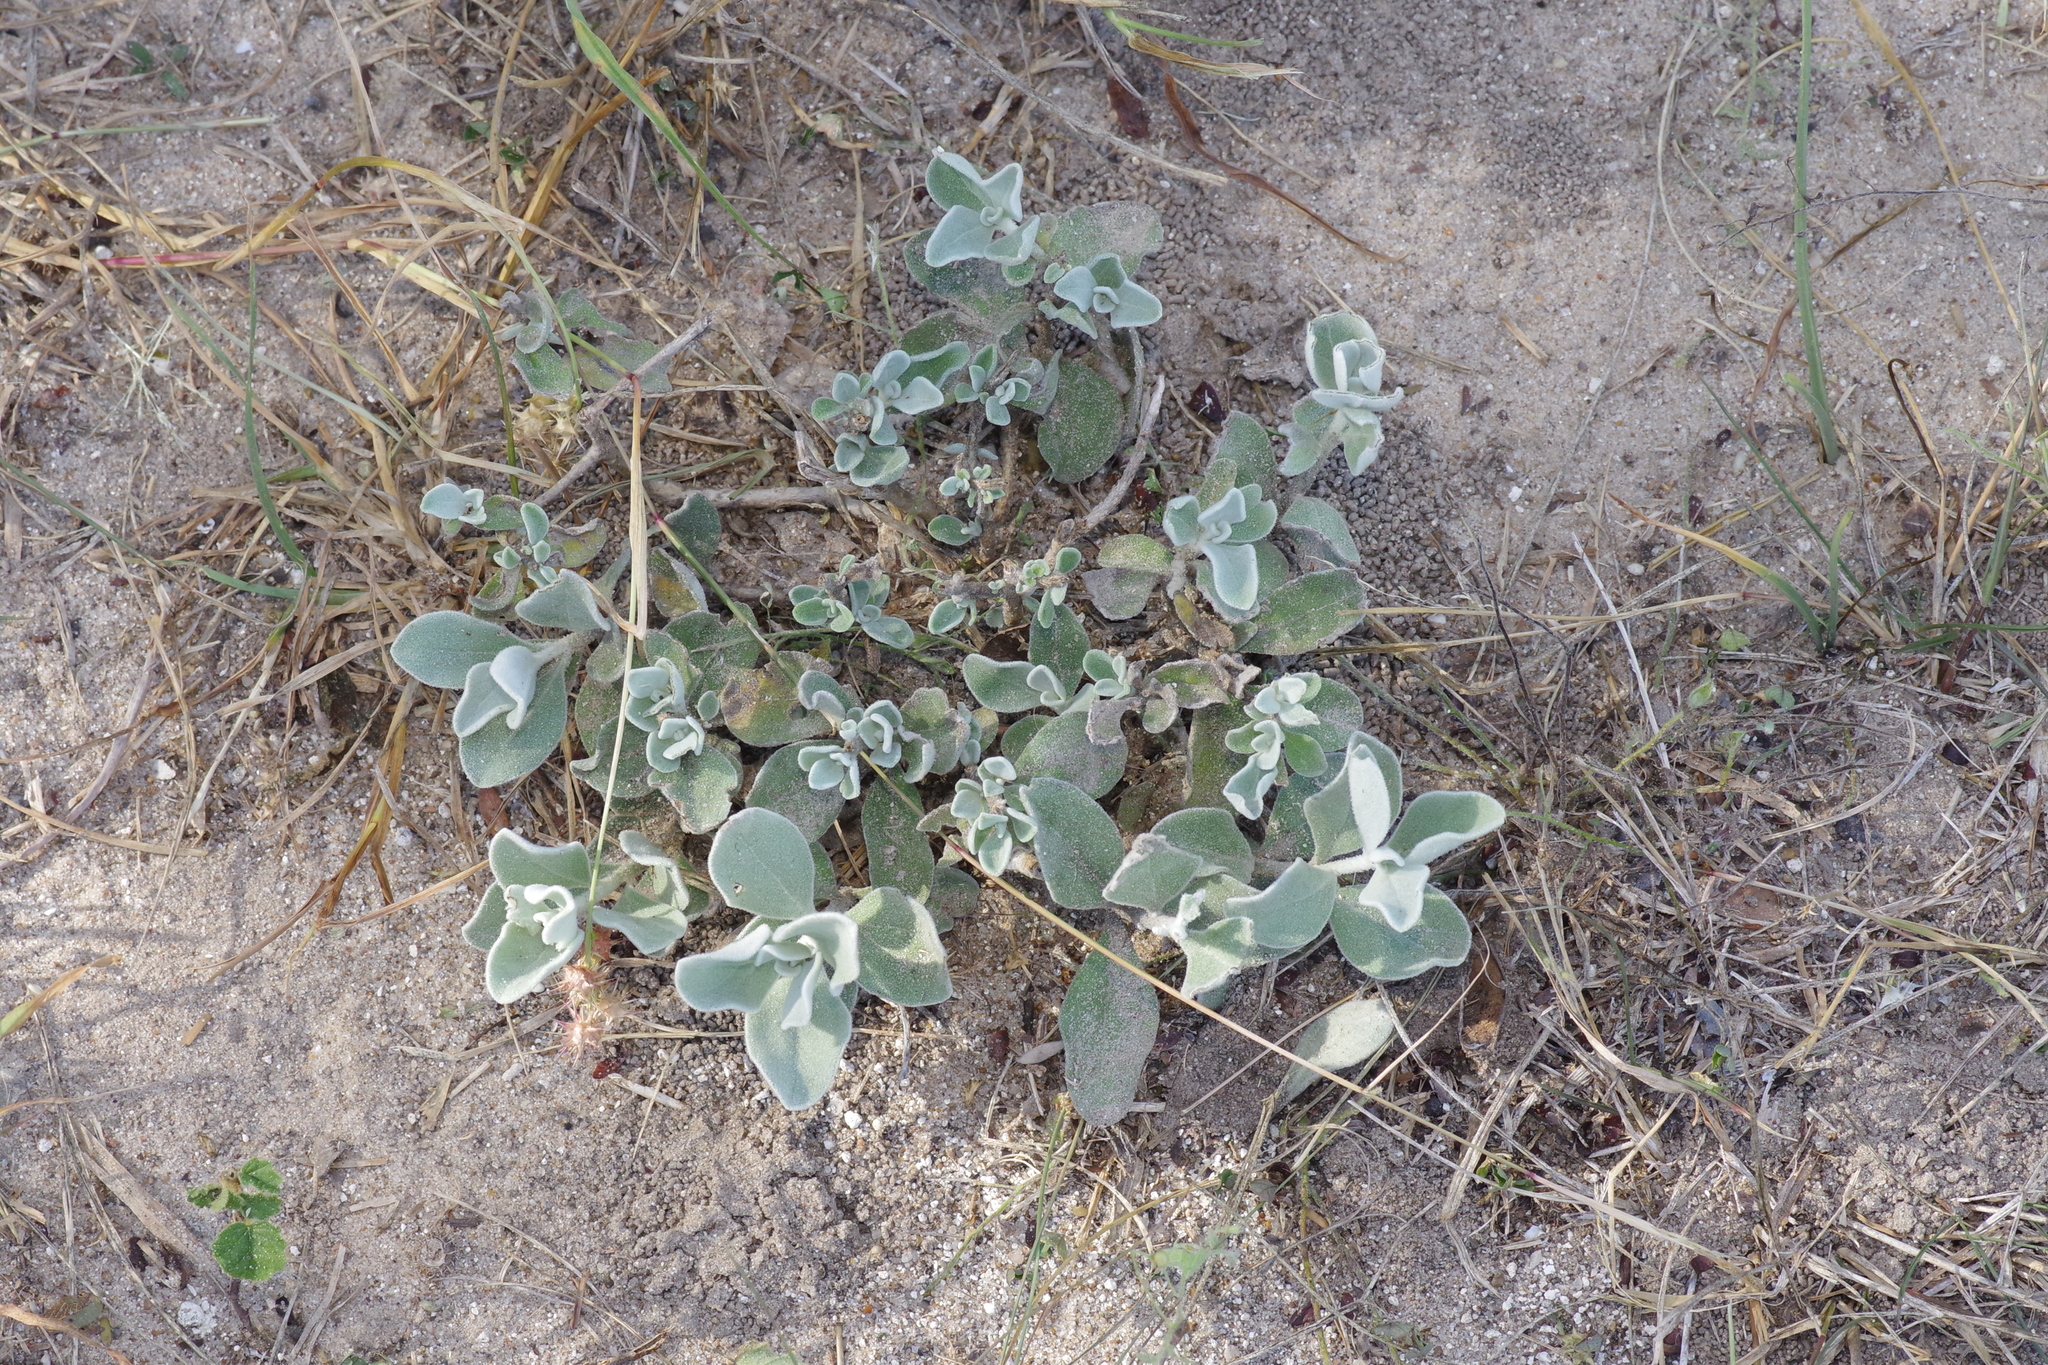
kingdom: Plantae
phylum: Tracheophyta
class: Magnoliopsida
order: Lamiales
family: Scrophulariaceae
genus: Leucophyllum
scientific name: Leucophyllum frutescens
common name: Texas silverleaf
